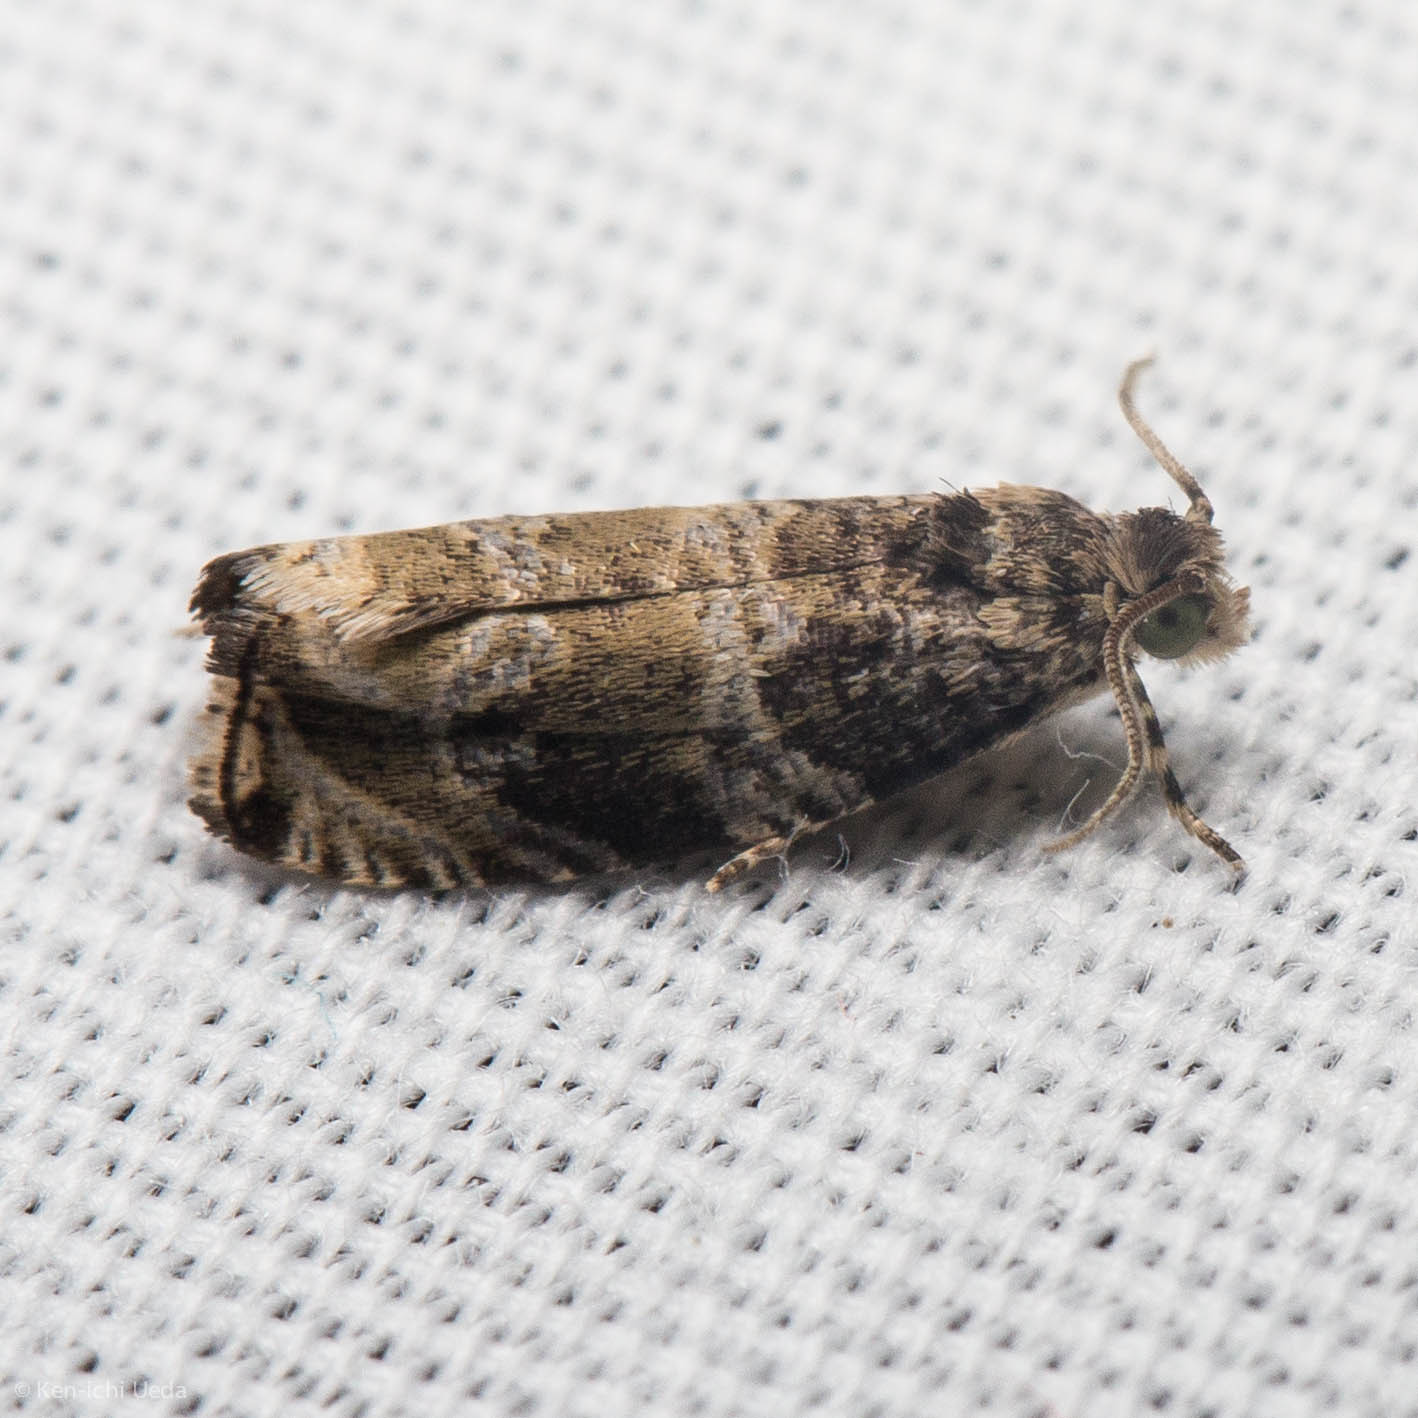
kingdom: Animalia
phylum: Arthropoda
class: Insecta
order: Lepidoptera
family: Tortricidae
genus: Olethreutes
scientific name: Olethreutes appendiceum
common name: Serviceberry leafroller
